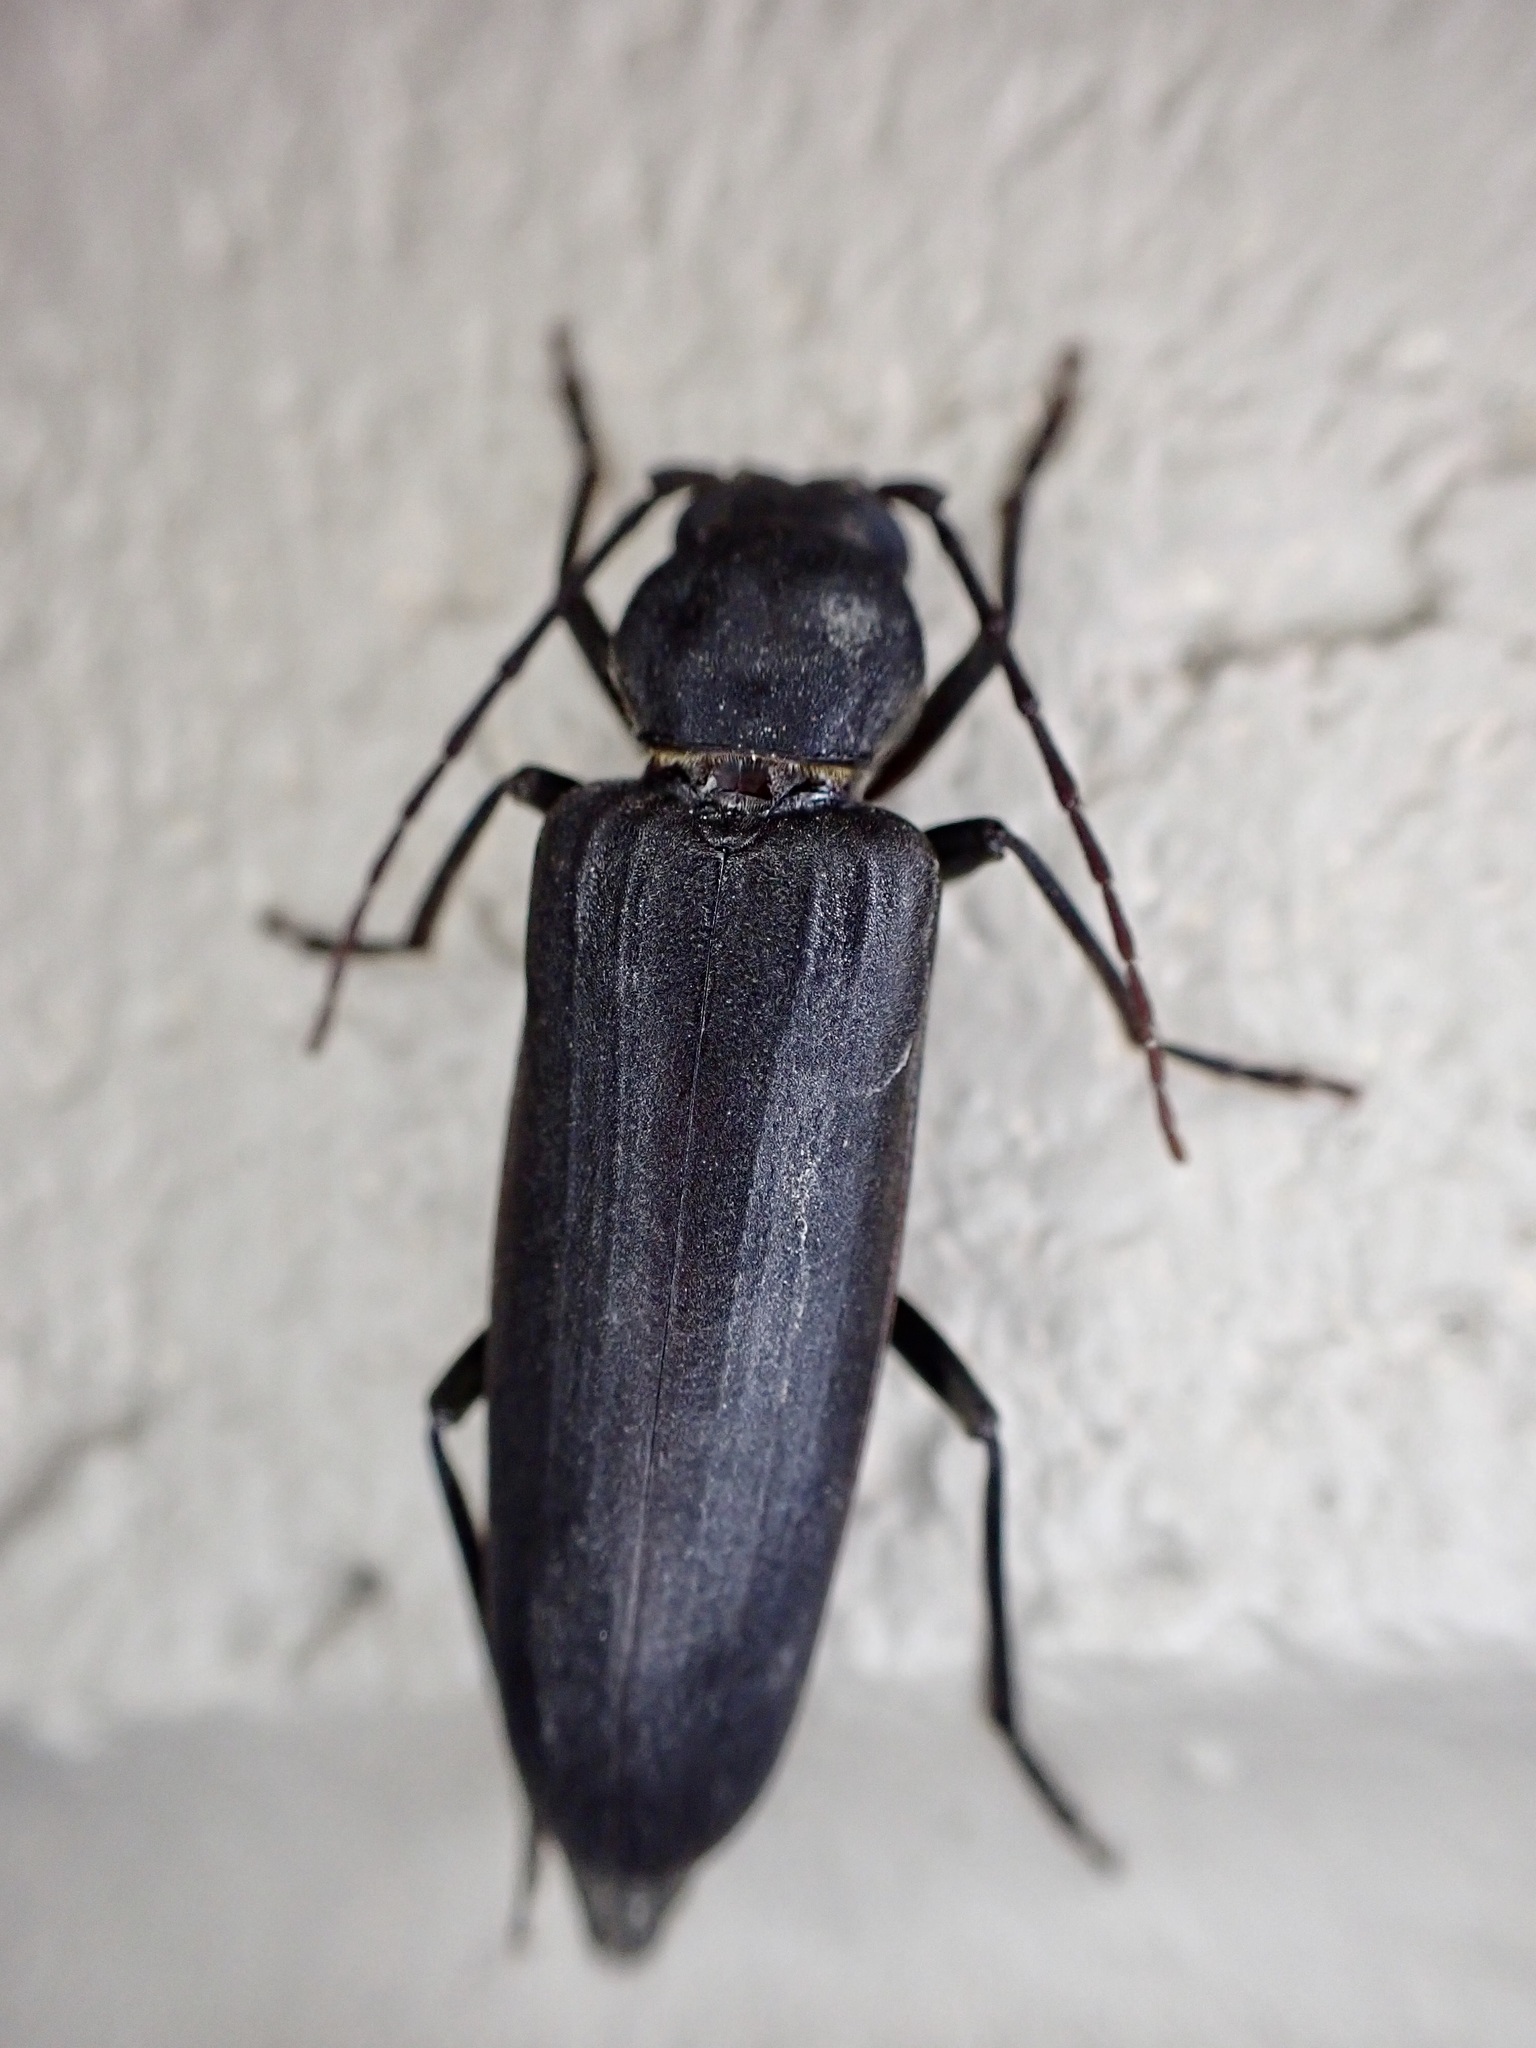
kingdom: Animalia
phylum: Arthropoda
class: Insecta
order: Coleoptera
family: Cerambycidae
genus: Arhopalus
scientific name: Arhopalus ferus
